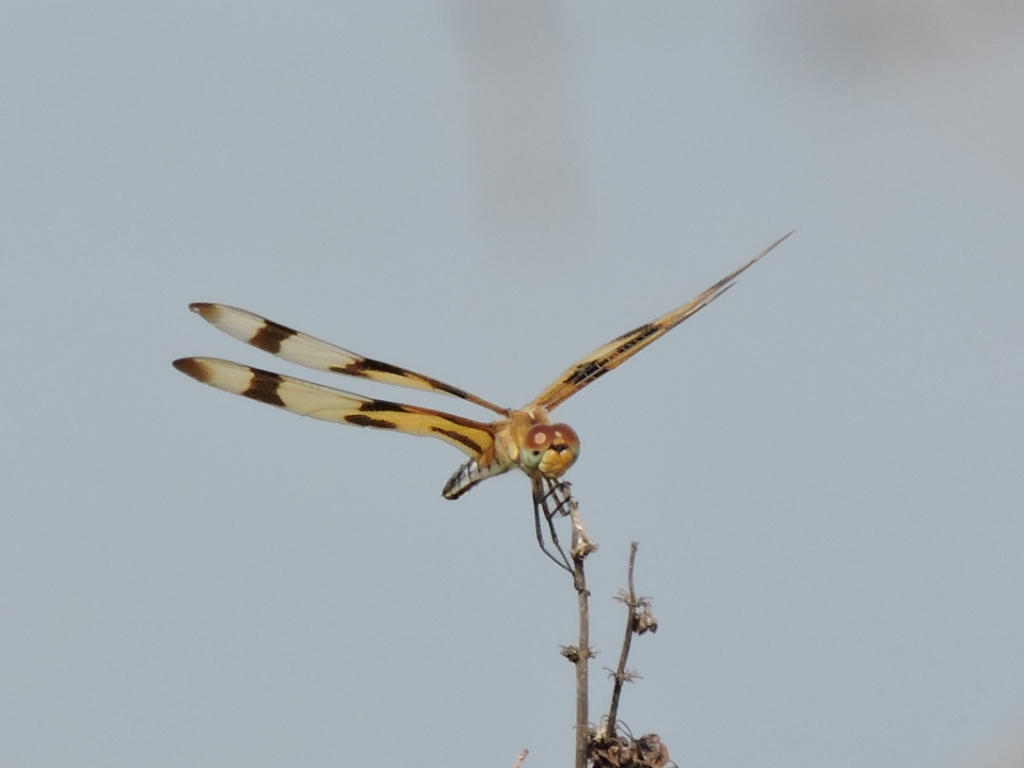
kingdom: Animalia
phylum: Arthropoda
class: Insecta
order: Odonata
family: Libellulidae
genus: Celithemis
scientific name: Celithemis eponina
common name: Halloween pennant
